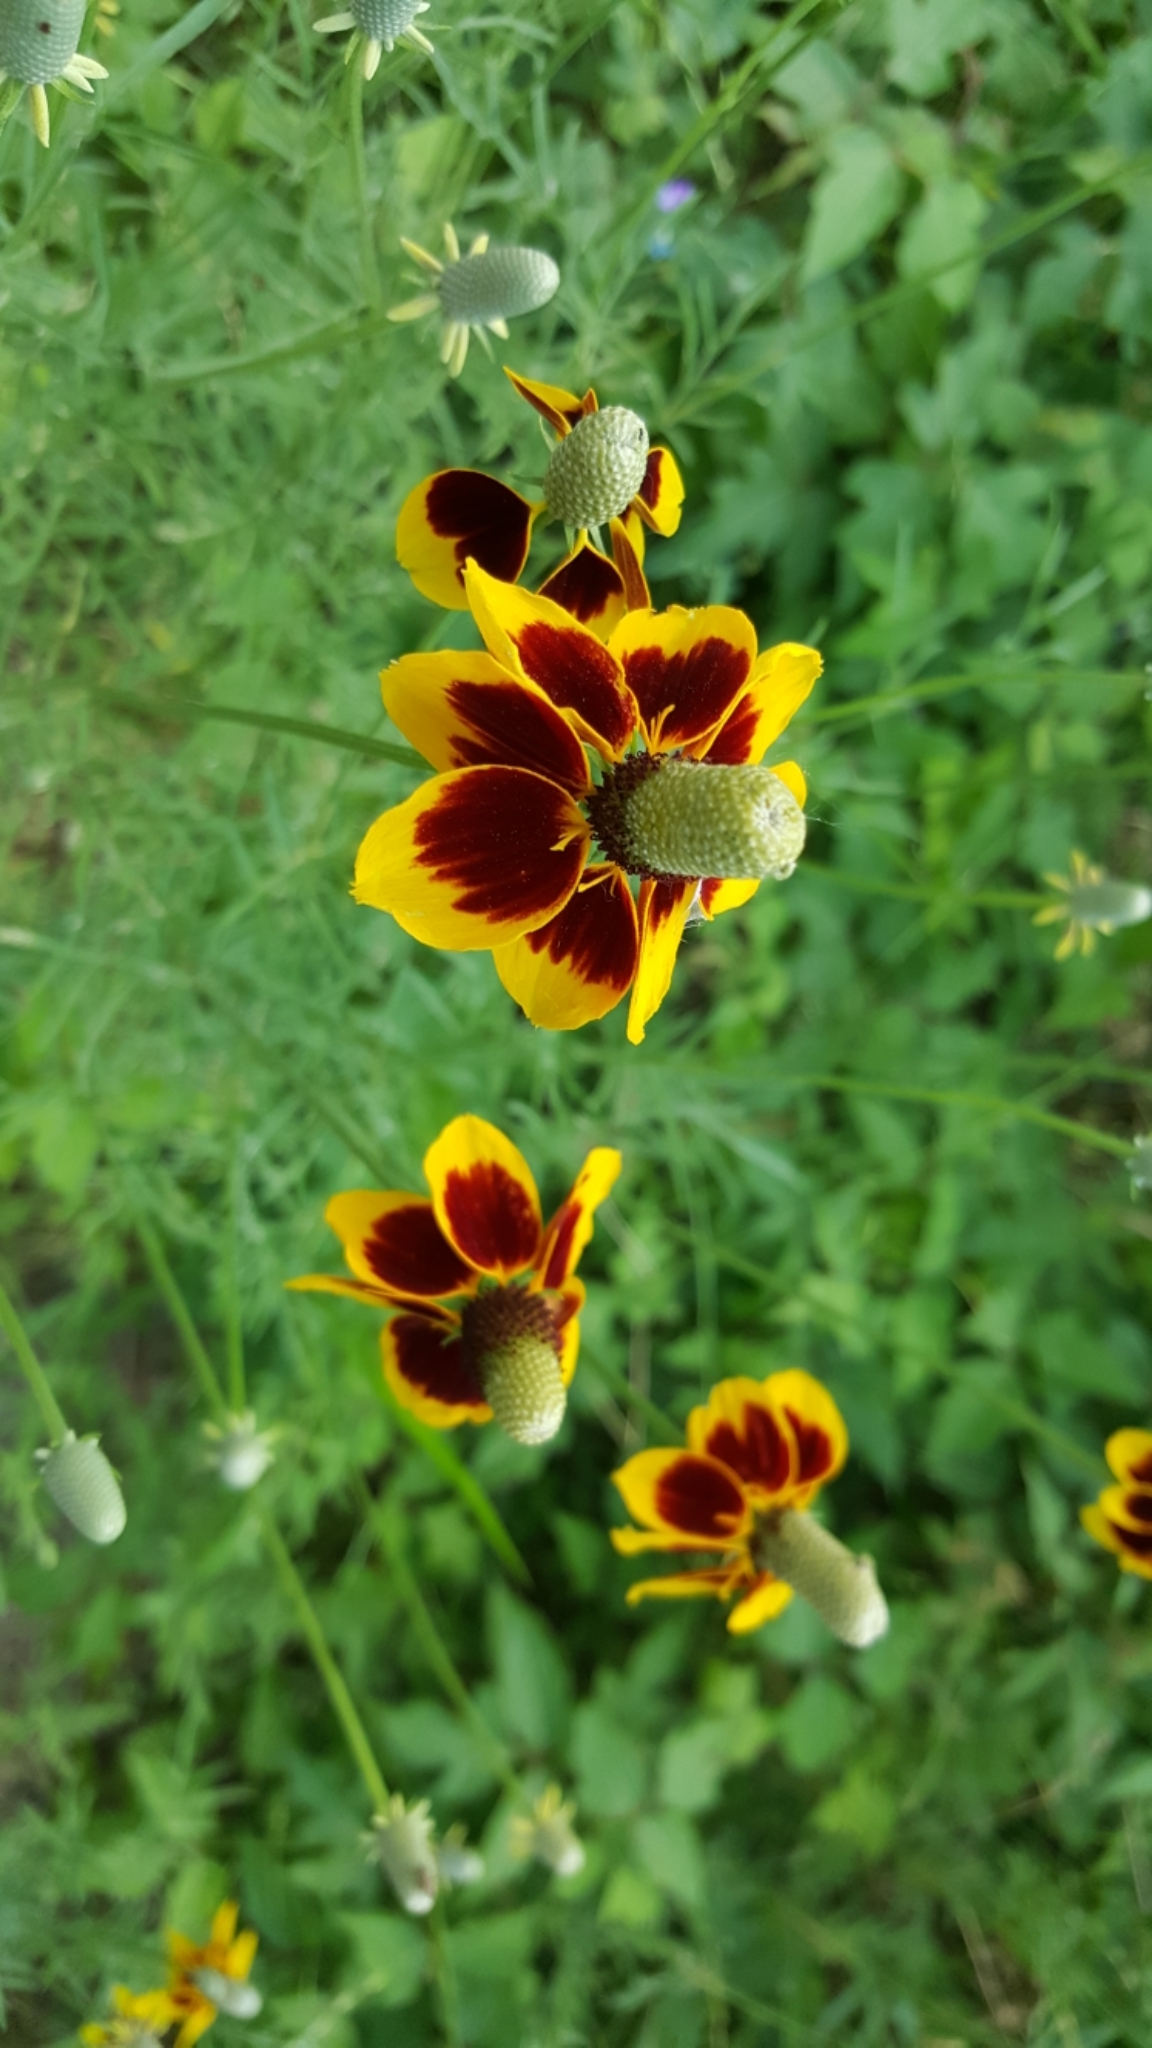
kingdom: Plantae
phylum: Tracheophyta
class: Magnoliopsida
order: Asterales
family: Asteraceae
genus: Ratibida
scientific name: Ratibida columnifera
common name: Prairie coneflower
